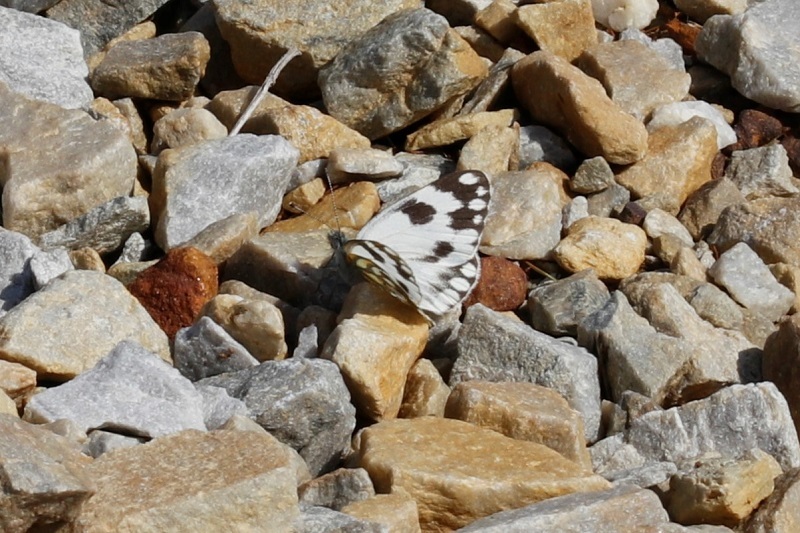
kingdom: Animalia
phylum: Arthropoda
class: Insecta
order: Lepidoptera
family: Pieridae
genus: Pontia
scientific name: Pontia helice
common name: Meadow white
